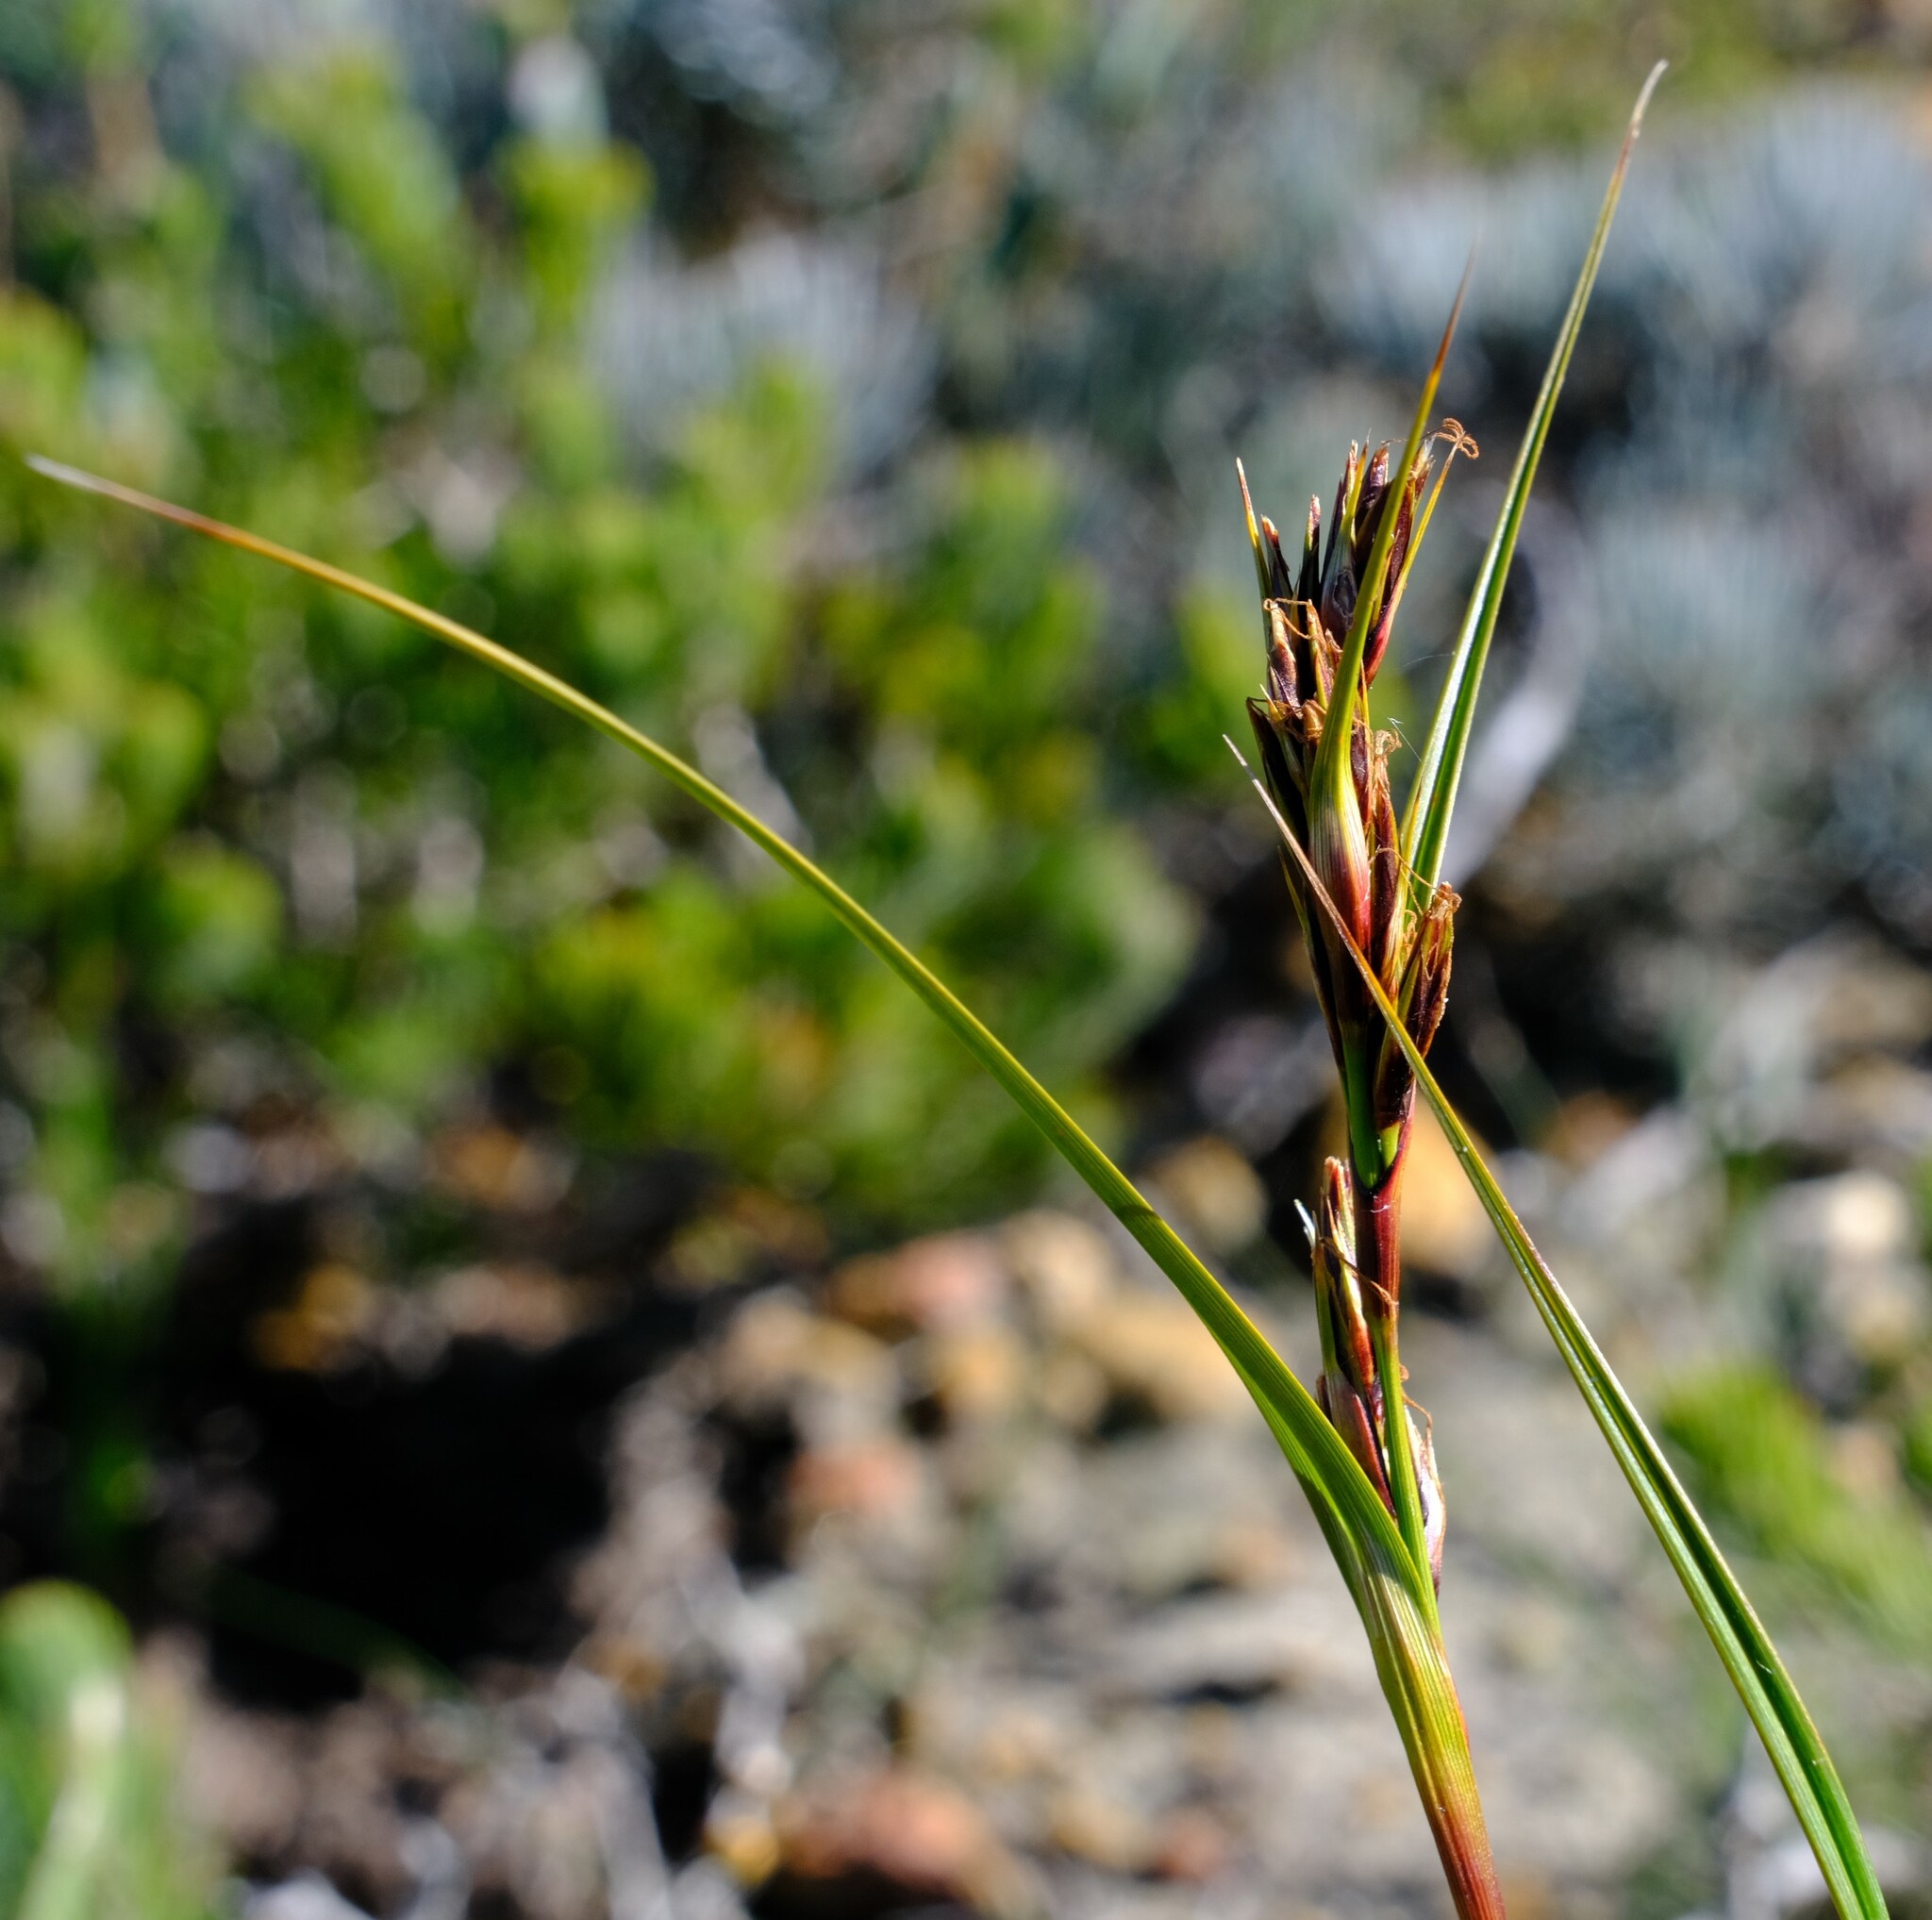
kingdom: Plantae
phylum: Tracheophyta
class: Liliopsida
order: Poales
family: Cyperaceae
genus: Morelotia
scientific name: Morelotia
